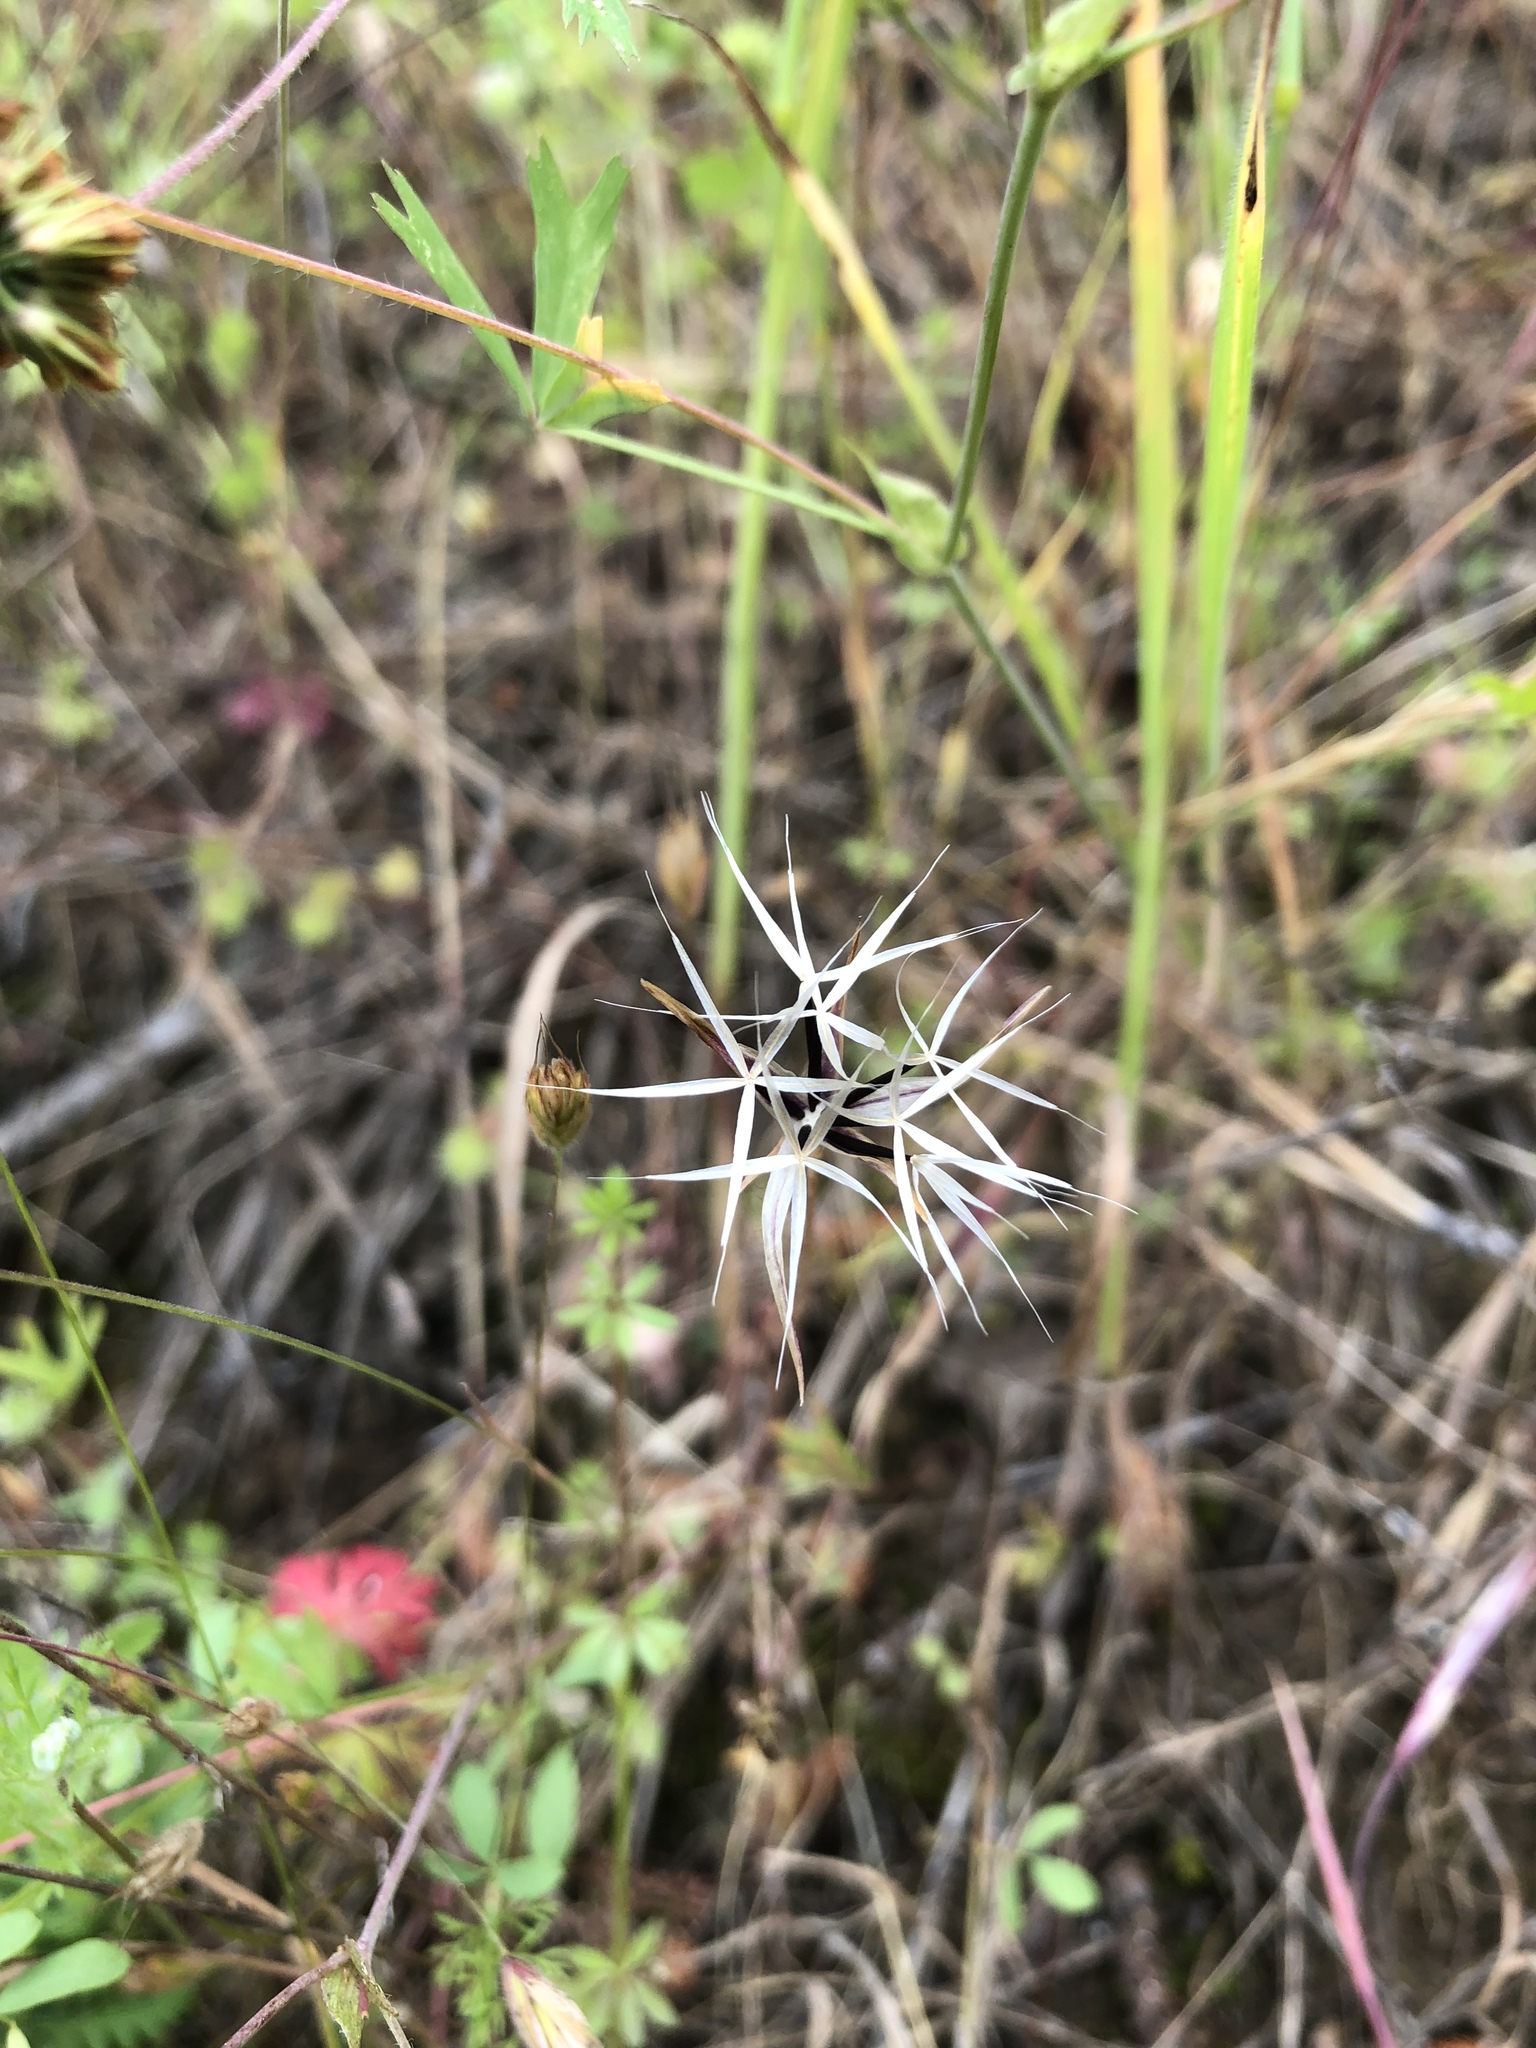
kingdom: Plantae
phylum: Tracheophyta
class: Magnoliopsida
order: Asterales
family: Asteraceae
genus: Microseris
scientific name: Microseris lindleyi
